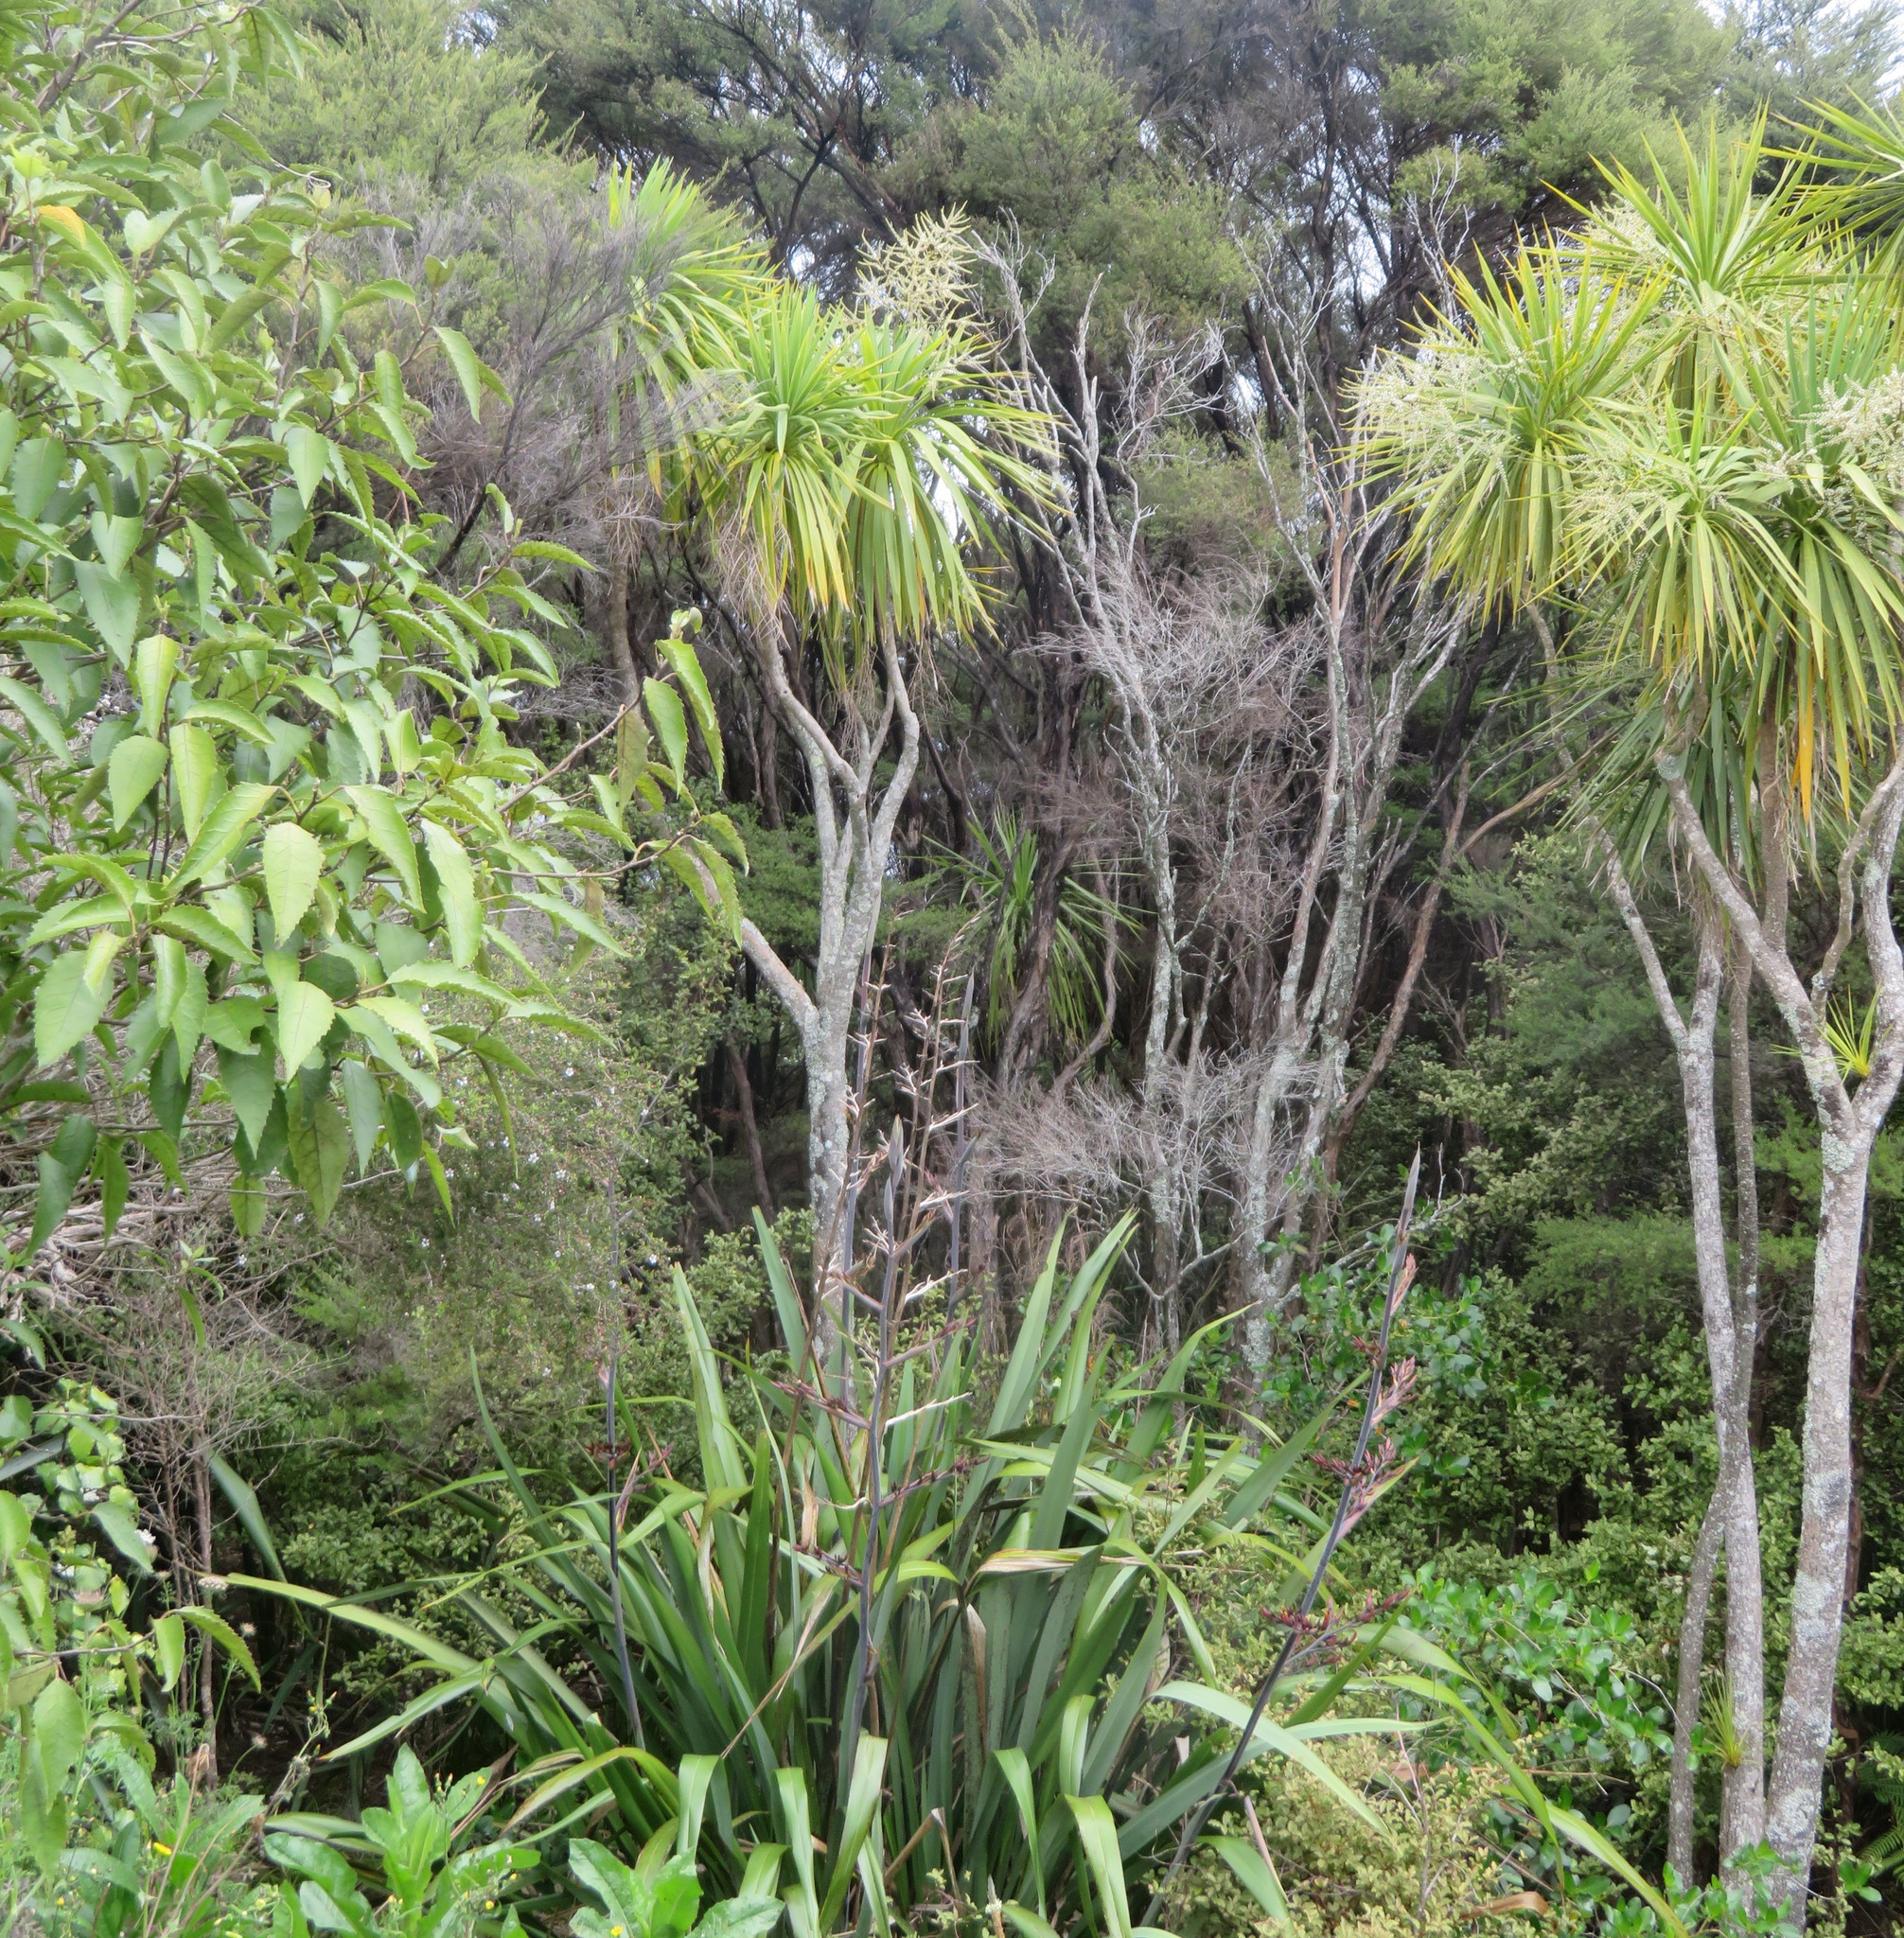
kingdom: Plantae
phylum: Tracheophyta
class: Liliopsida
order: Asparagales
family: Asparagaceae
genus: Cordyline
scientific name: Cordyline australis
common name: Cabbage-palm
